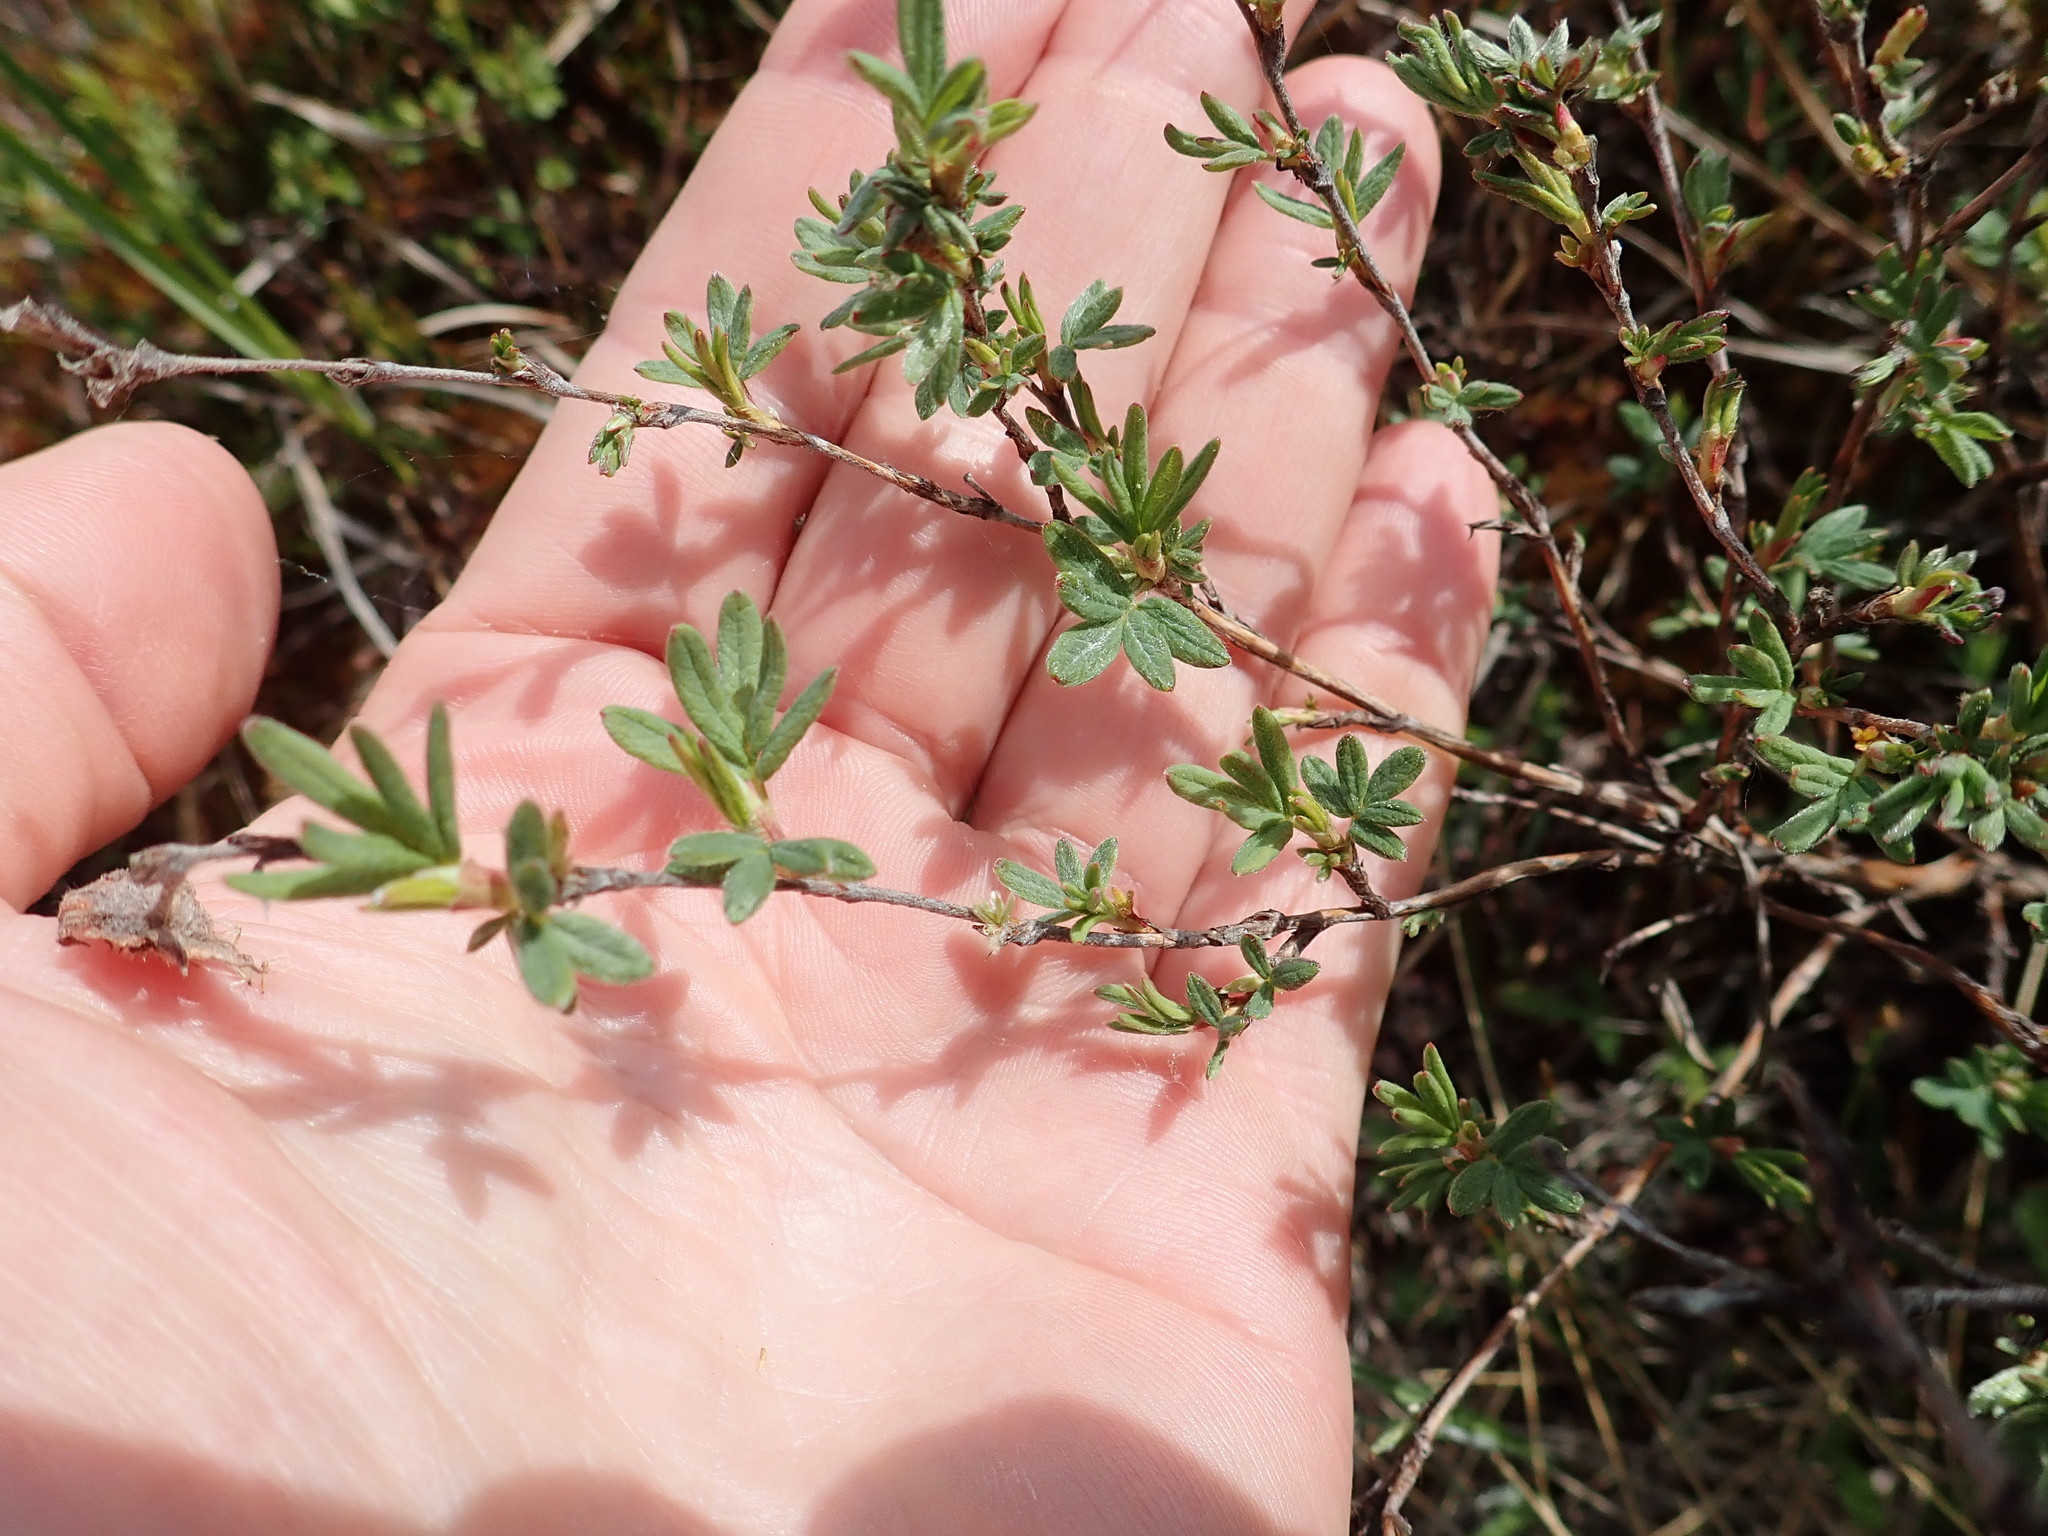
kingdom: Plantae
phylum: Tracheophyta
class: Magnoliopsida
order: Rosales
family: Rosaceae
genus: Dasiphora
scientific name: Dasiphora fruticosa
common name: Shrubby cinquefoil
